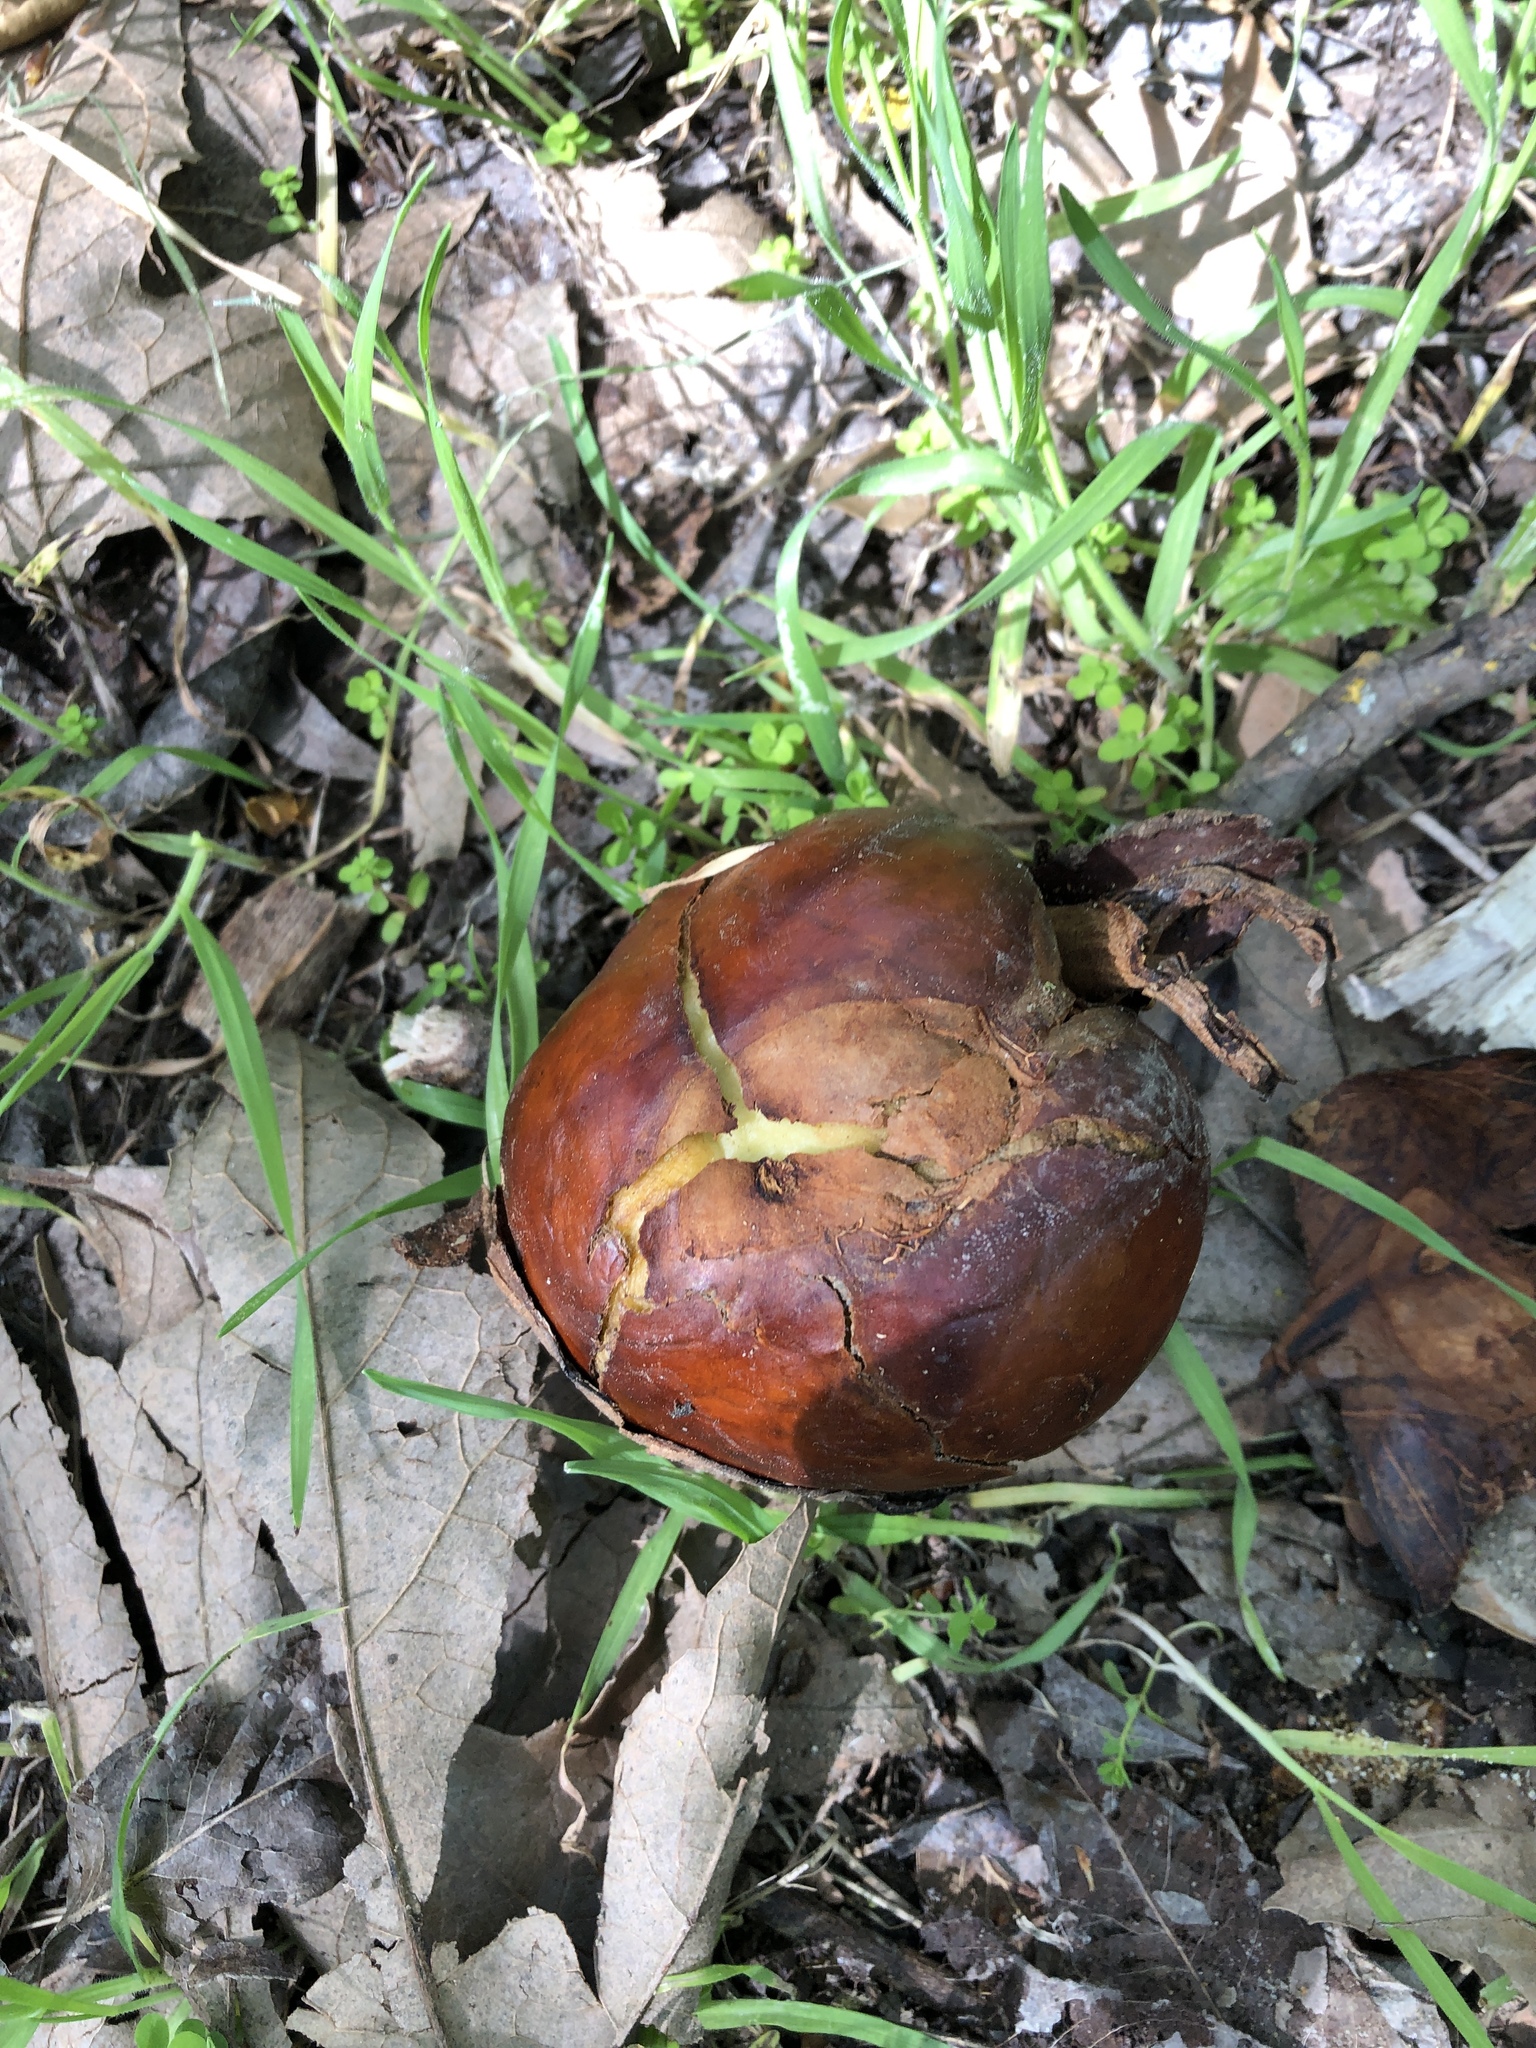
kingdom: Plantae
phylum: Tracheophyta
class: Magnoliopsida
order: Sapindales
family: Sapindaceae
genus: Aesculus
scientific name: Aesculus californica
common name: California buckeye
